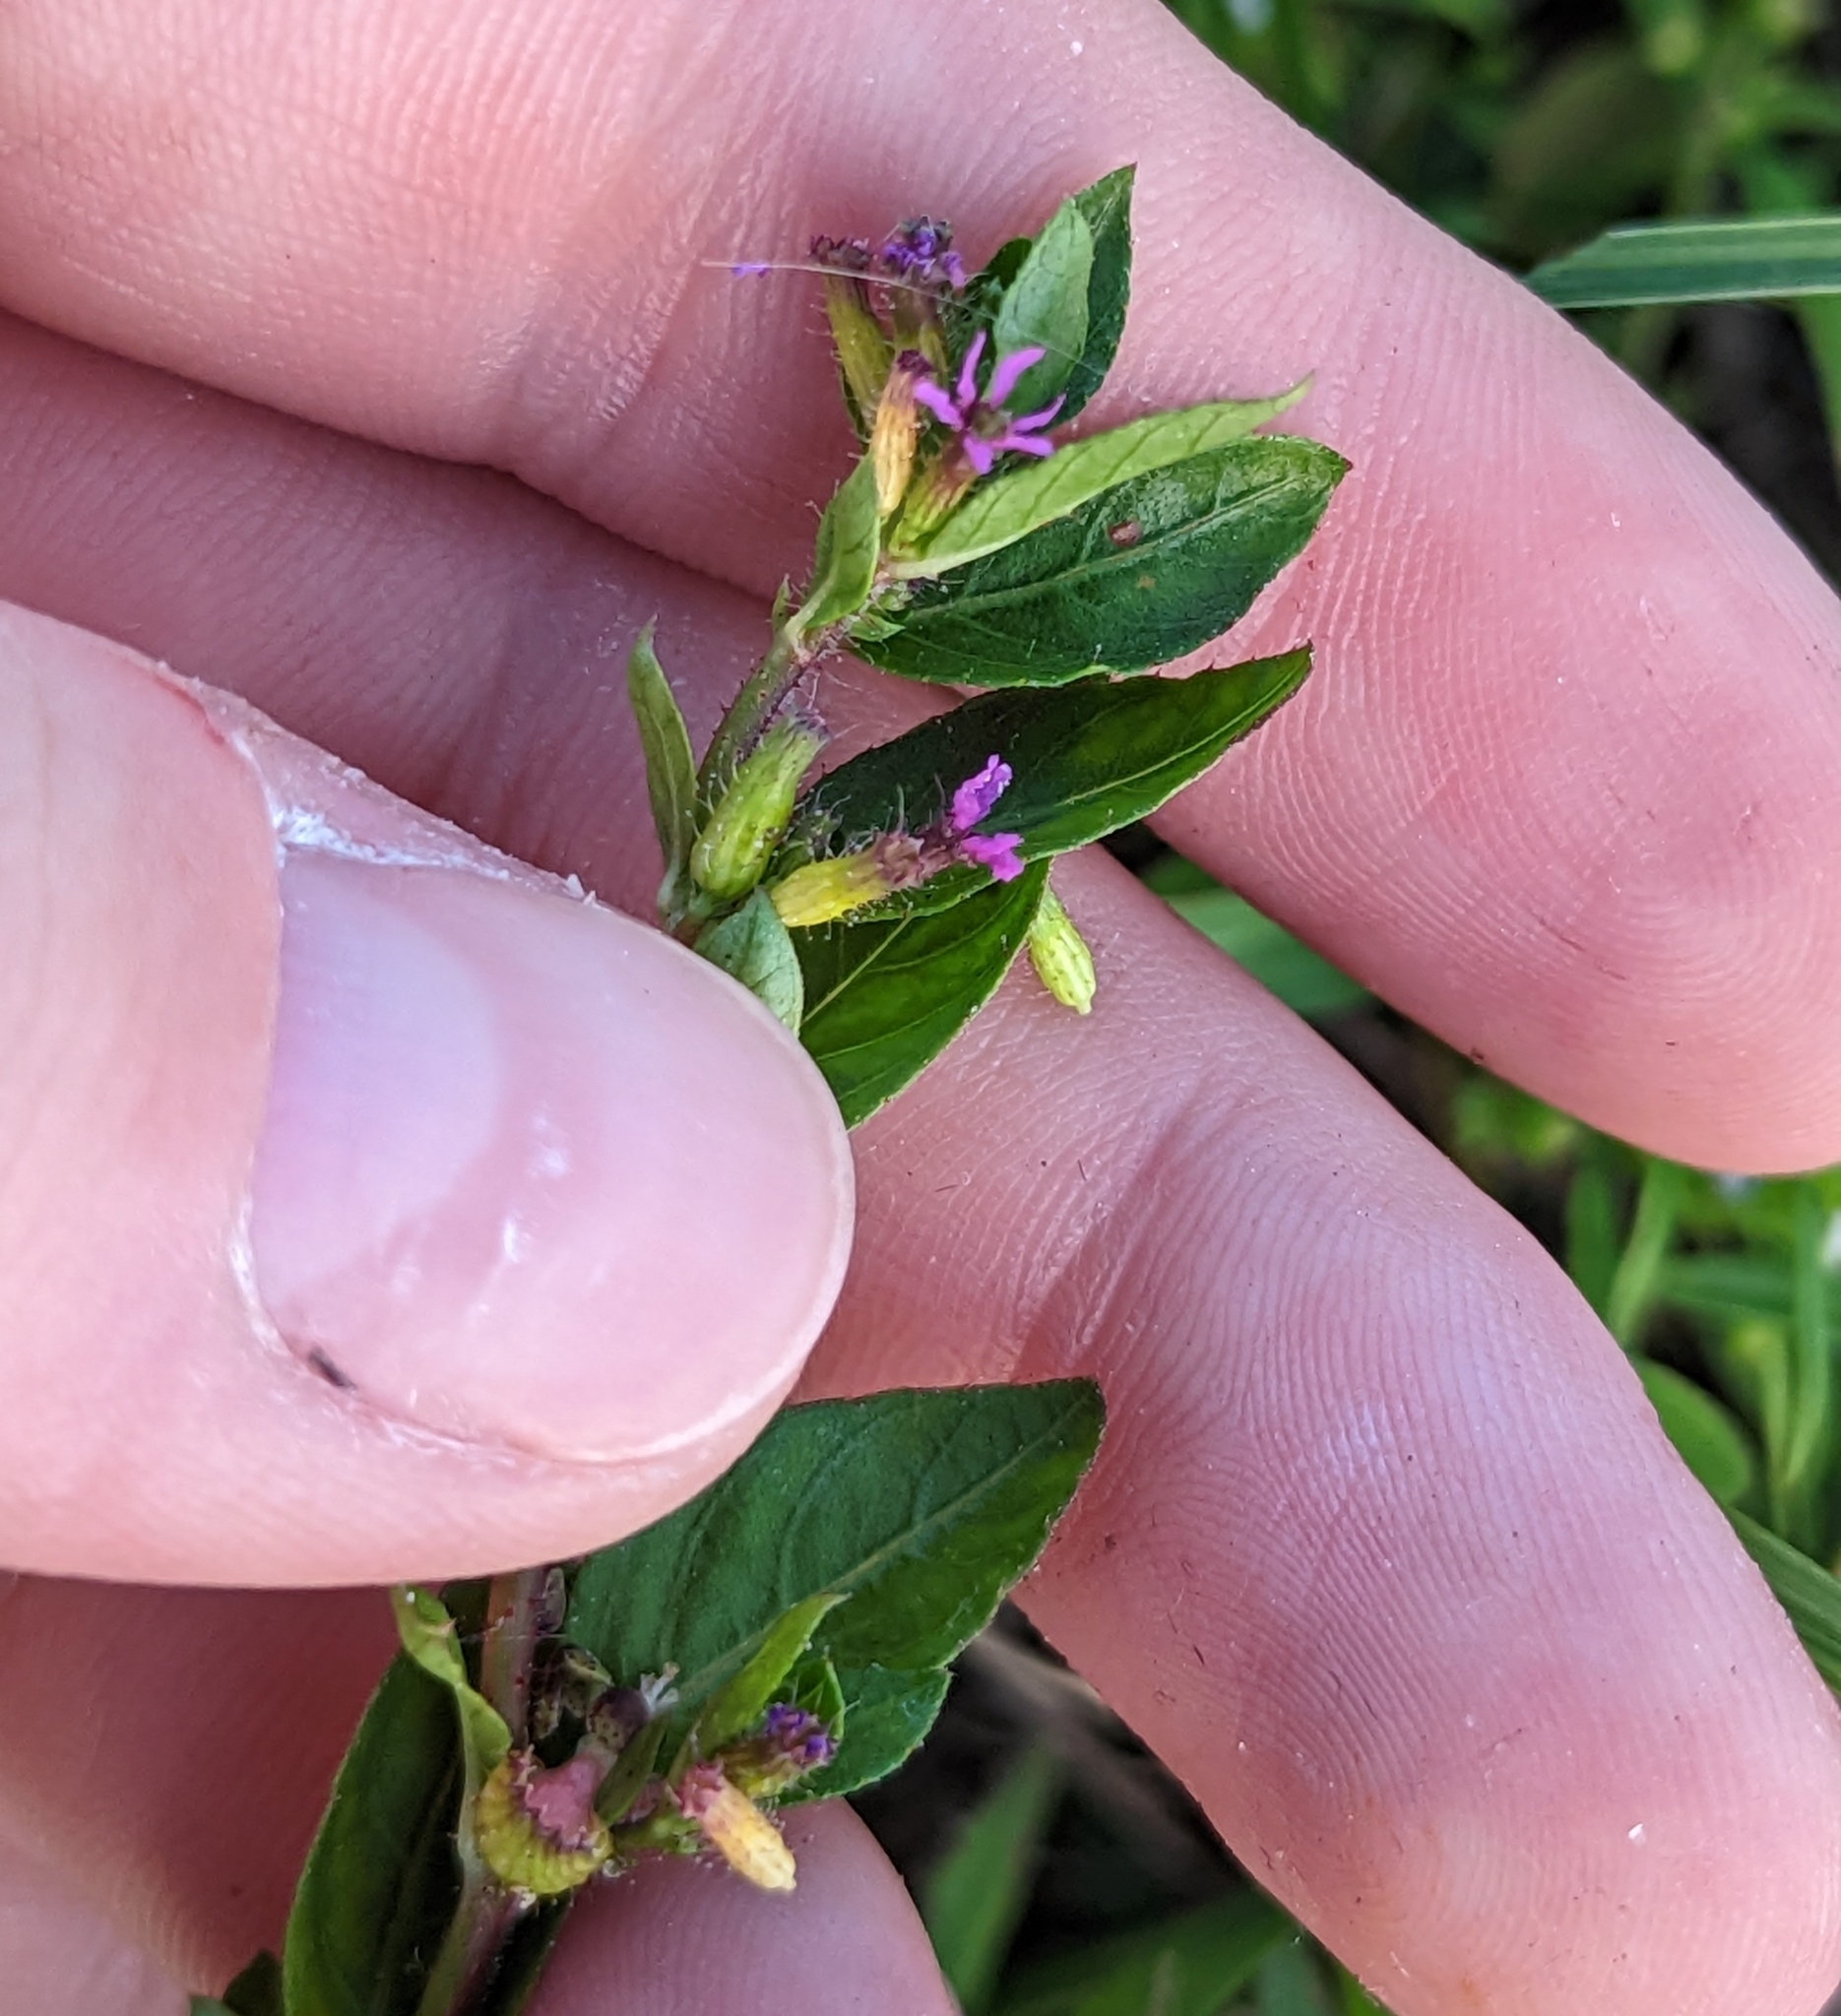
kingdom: Plantae
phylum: Tracheophyta
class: Magnoliopsida
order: Myrtales
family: Lythraceae
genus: Cuphea
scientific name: Cuphea carthagenensis
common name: Colombian waxweed
